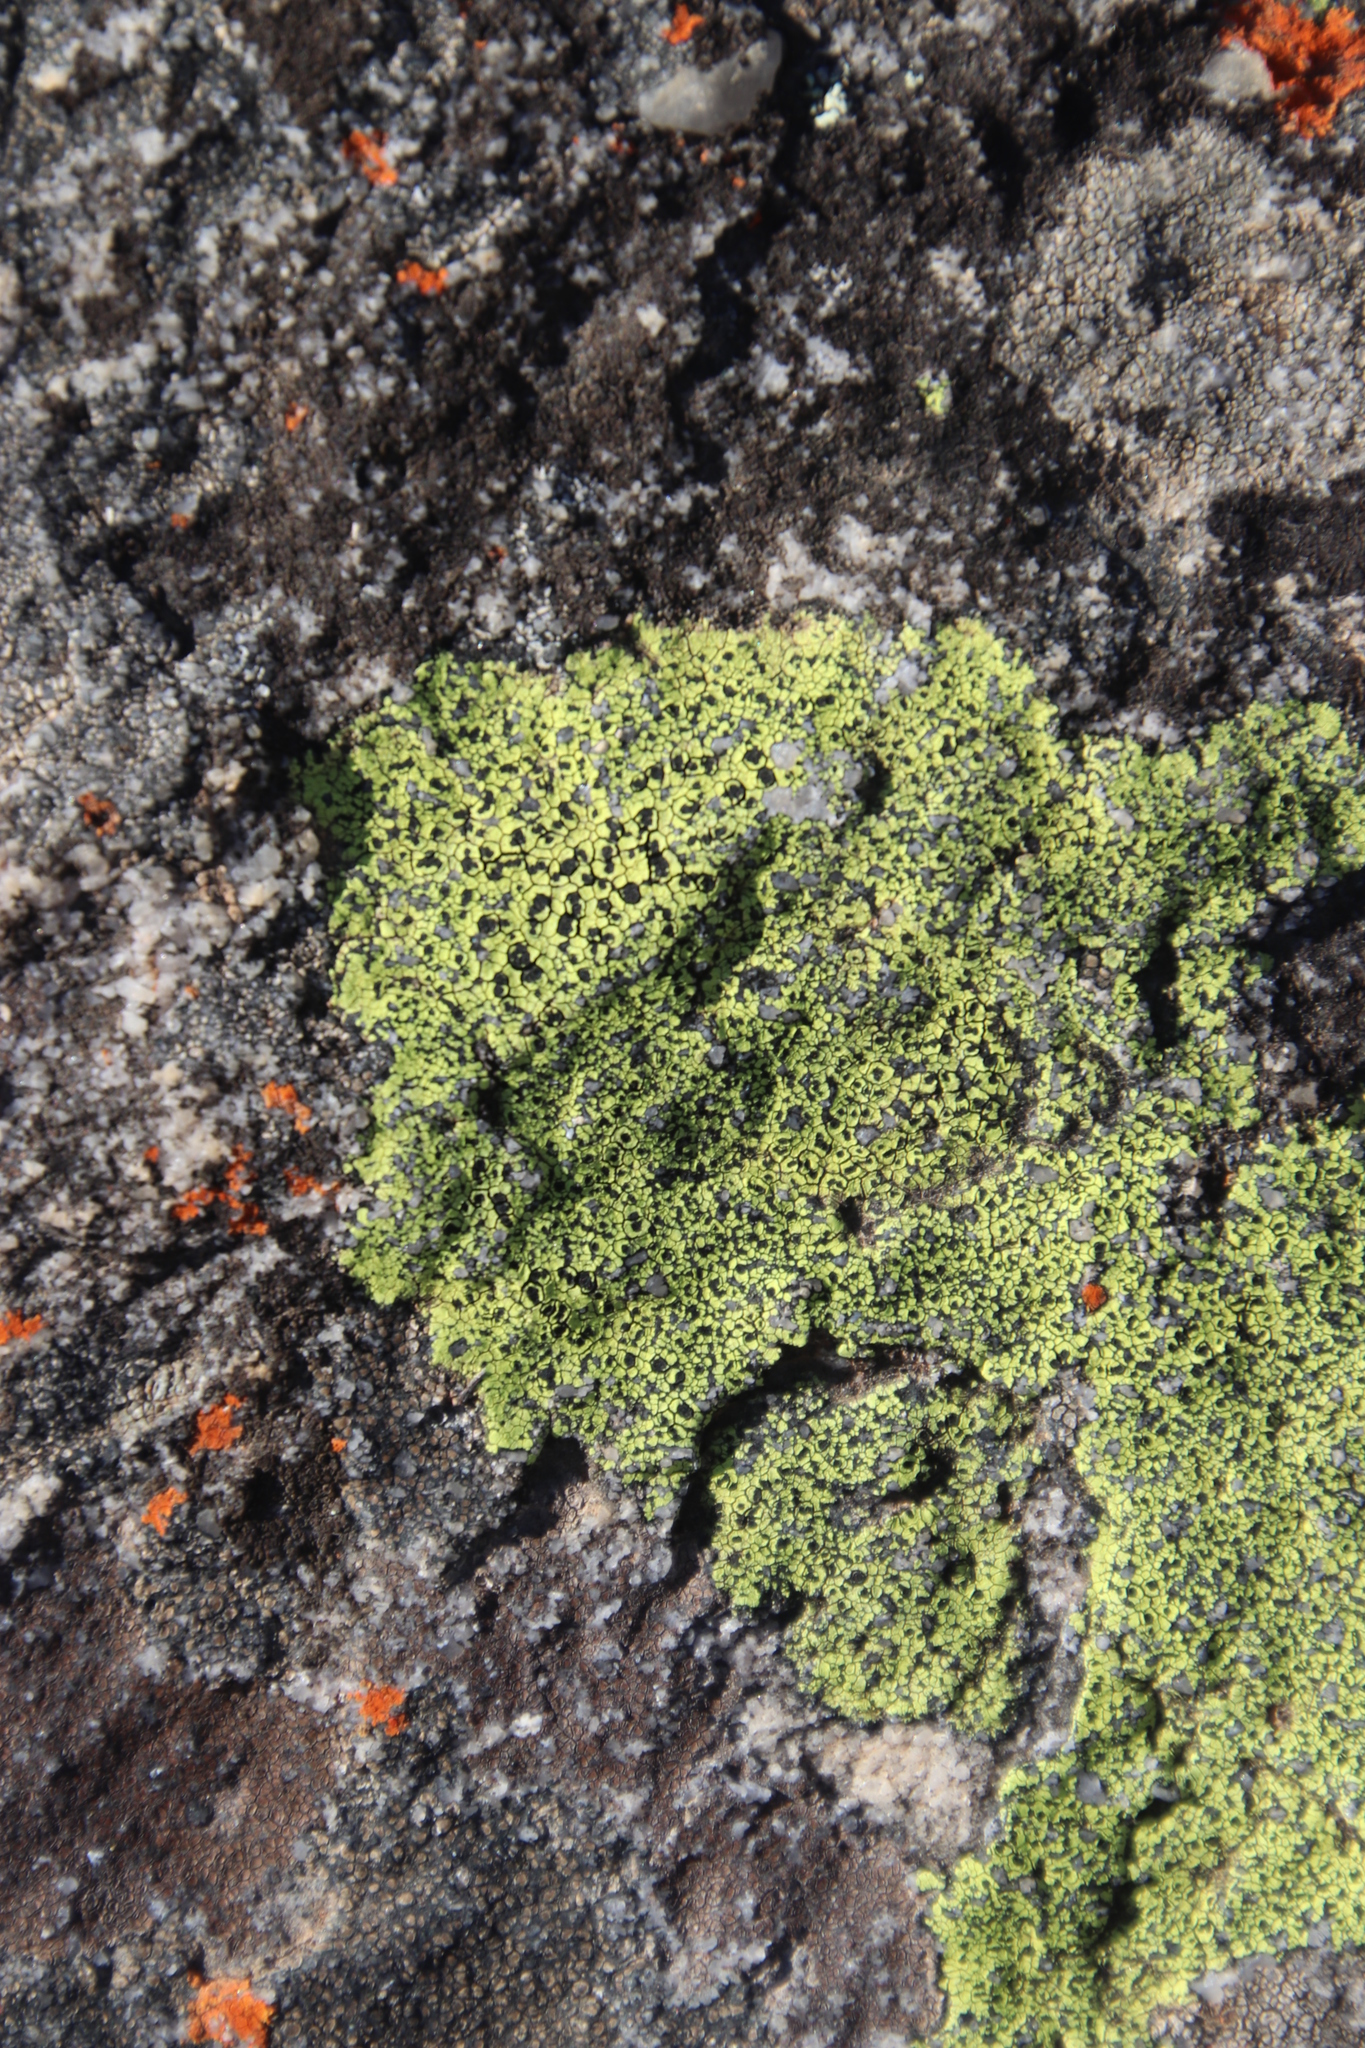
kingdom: Fungi
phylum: Ascomycota
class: Lecanoromycetes
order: Rhizocarpales
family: Rhizocarpaceae
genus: Rhizocarpon
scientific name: Rhizocarpon lecanorinum
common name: Crescent map lichen
